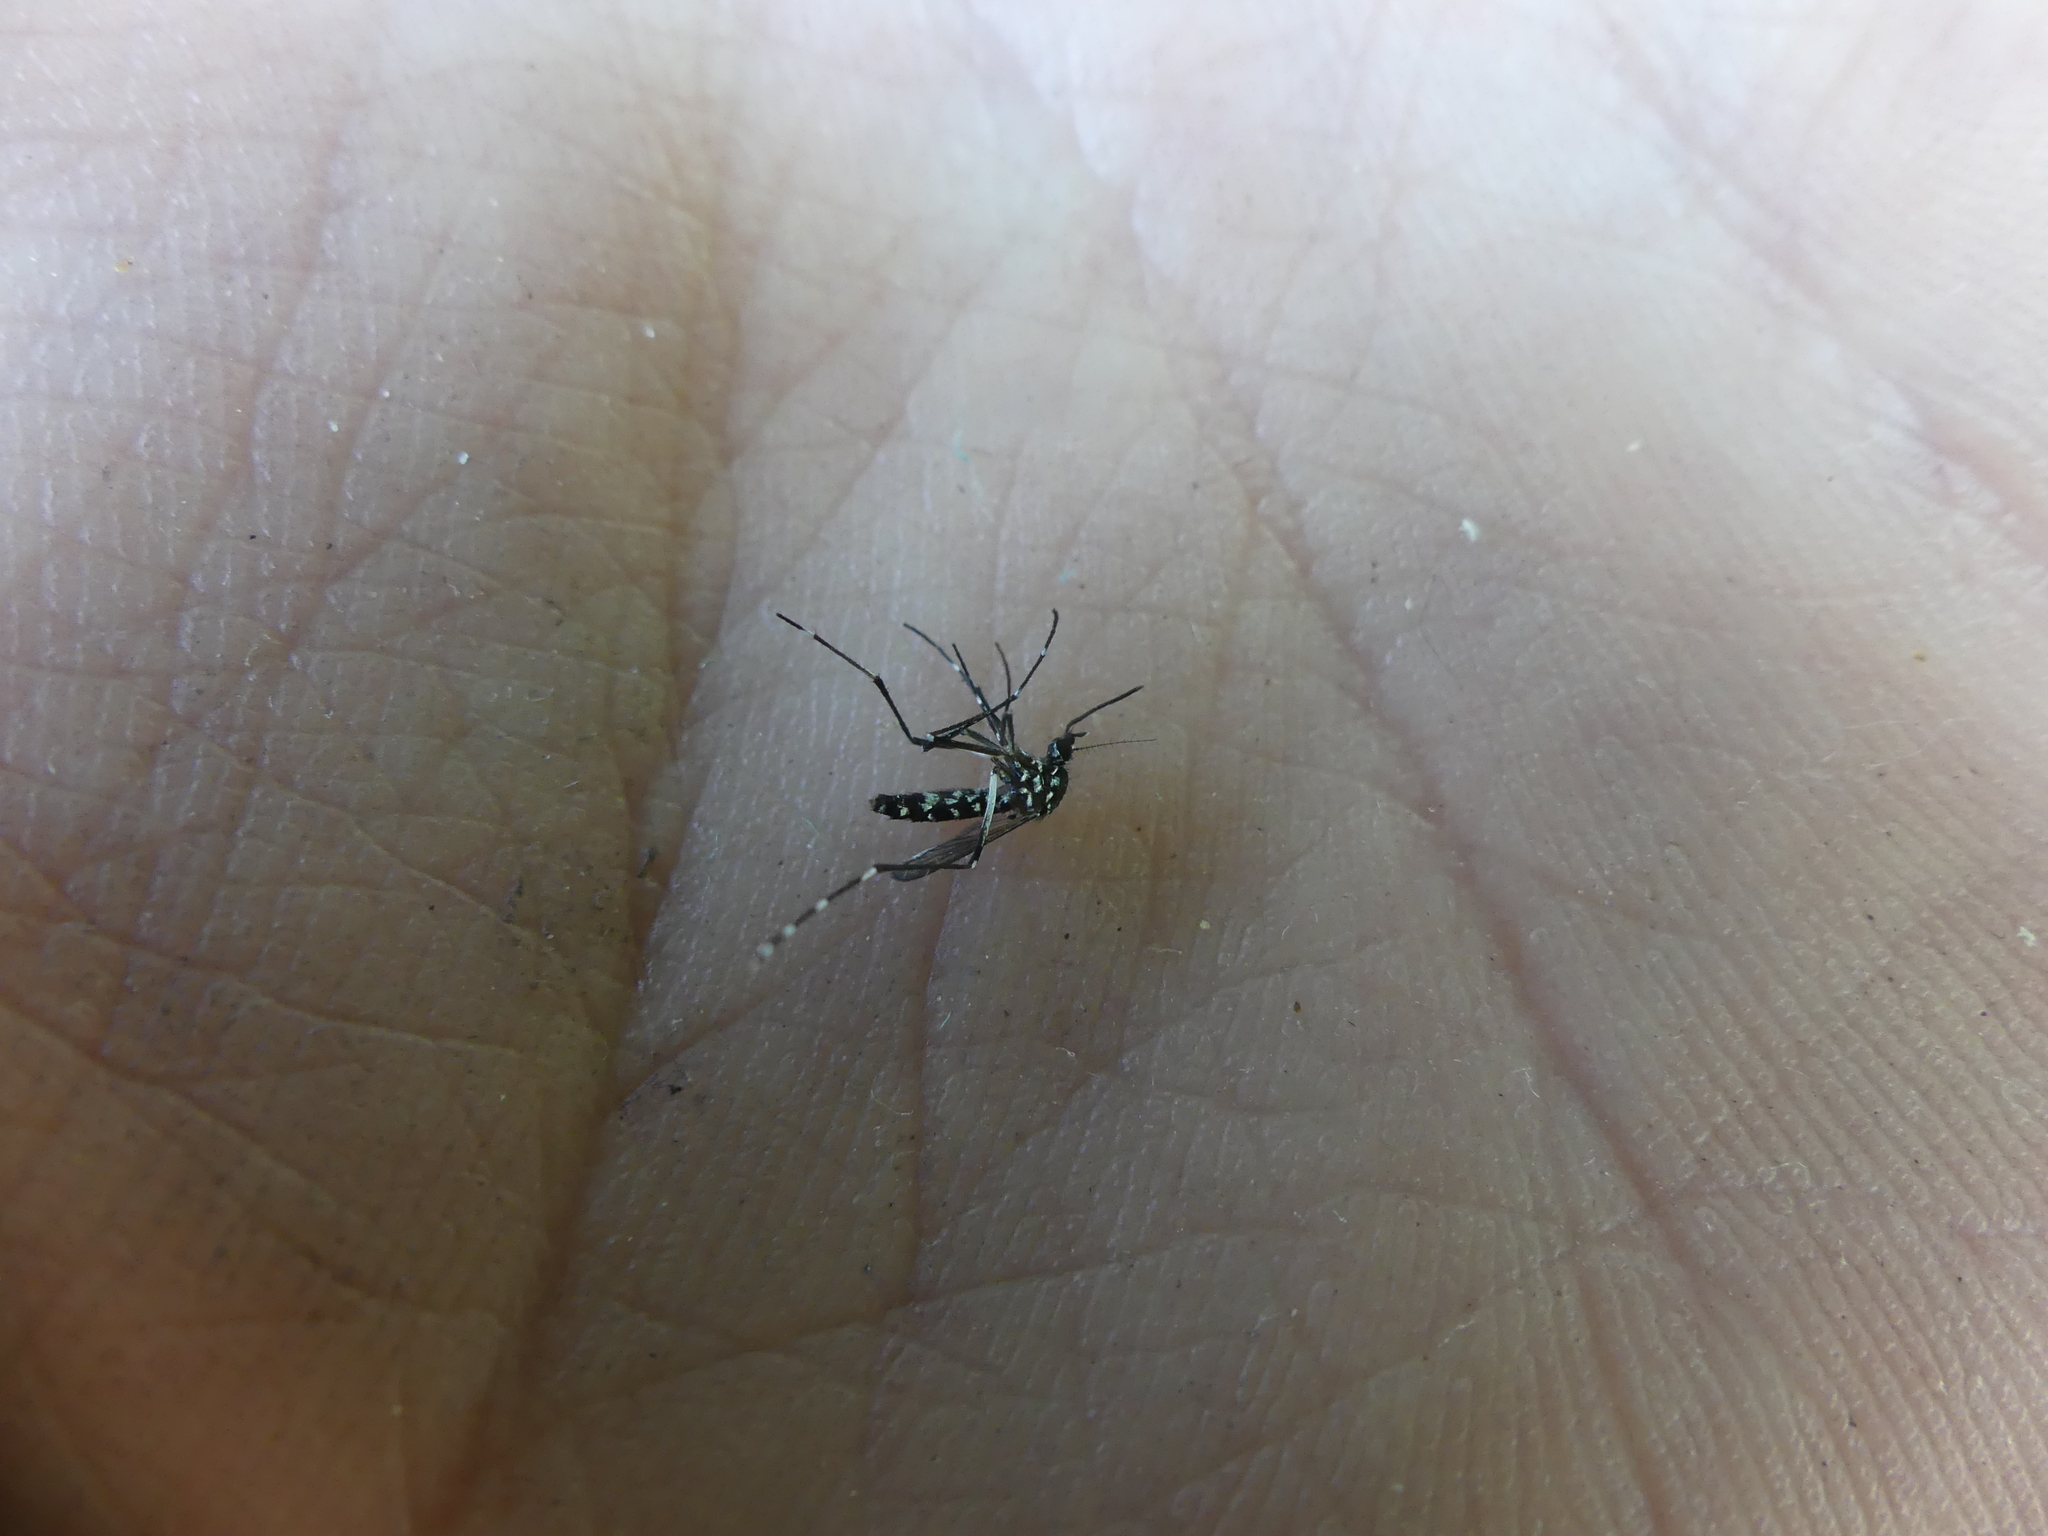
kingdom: Animalia
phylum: Arthropoda
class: Insecta
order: Diptera
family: Culicidae
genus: Aedes
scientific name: Aedes albopictus
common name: Tiger mosquito
